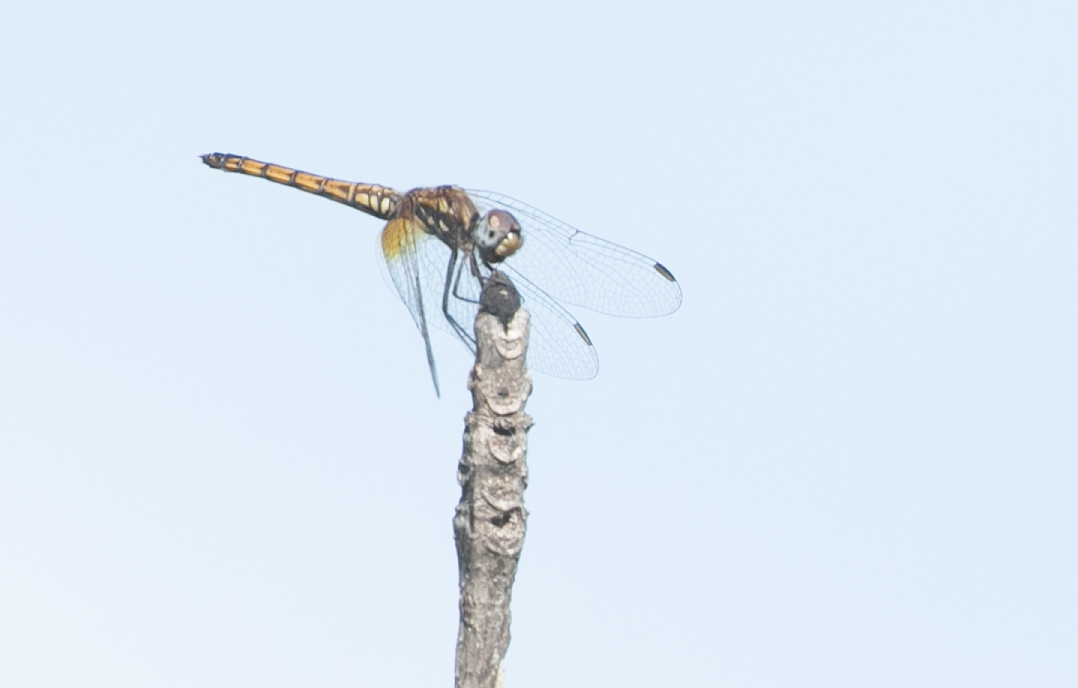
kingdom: Animalia
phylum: Arthropoda
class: Insecta
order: Odonata
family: Libellulidae
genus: Trithemis
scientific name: Trithemis annulata
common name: Violet dropwing
